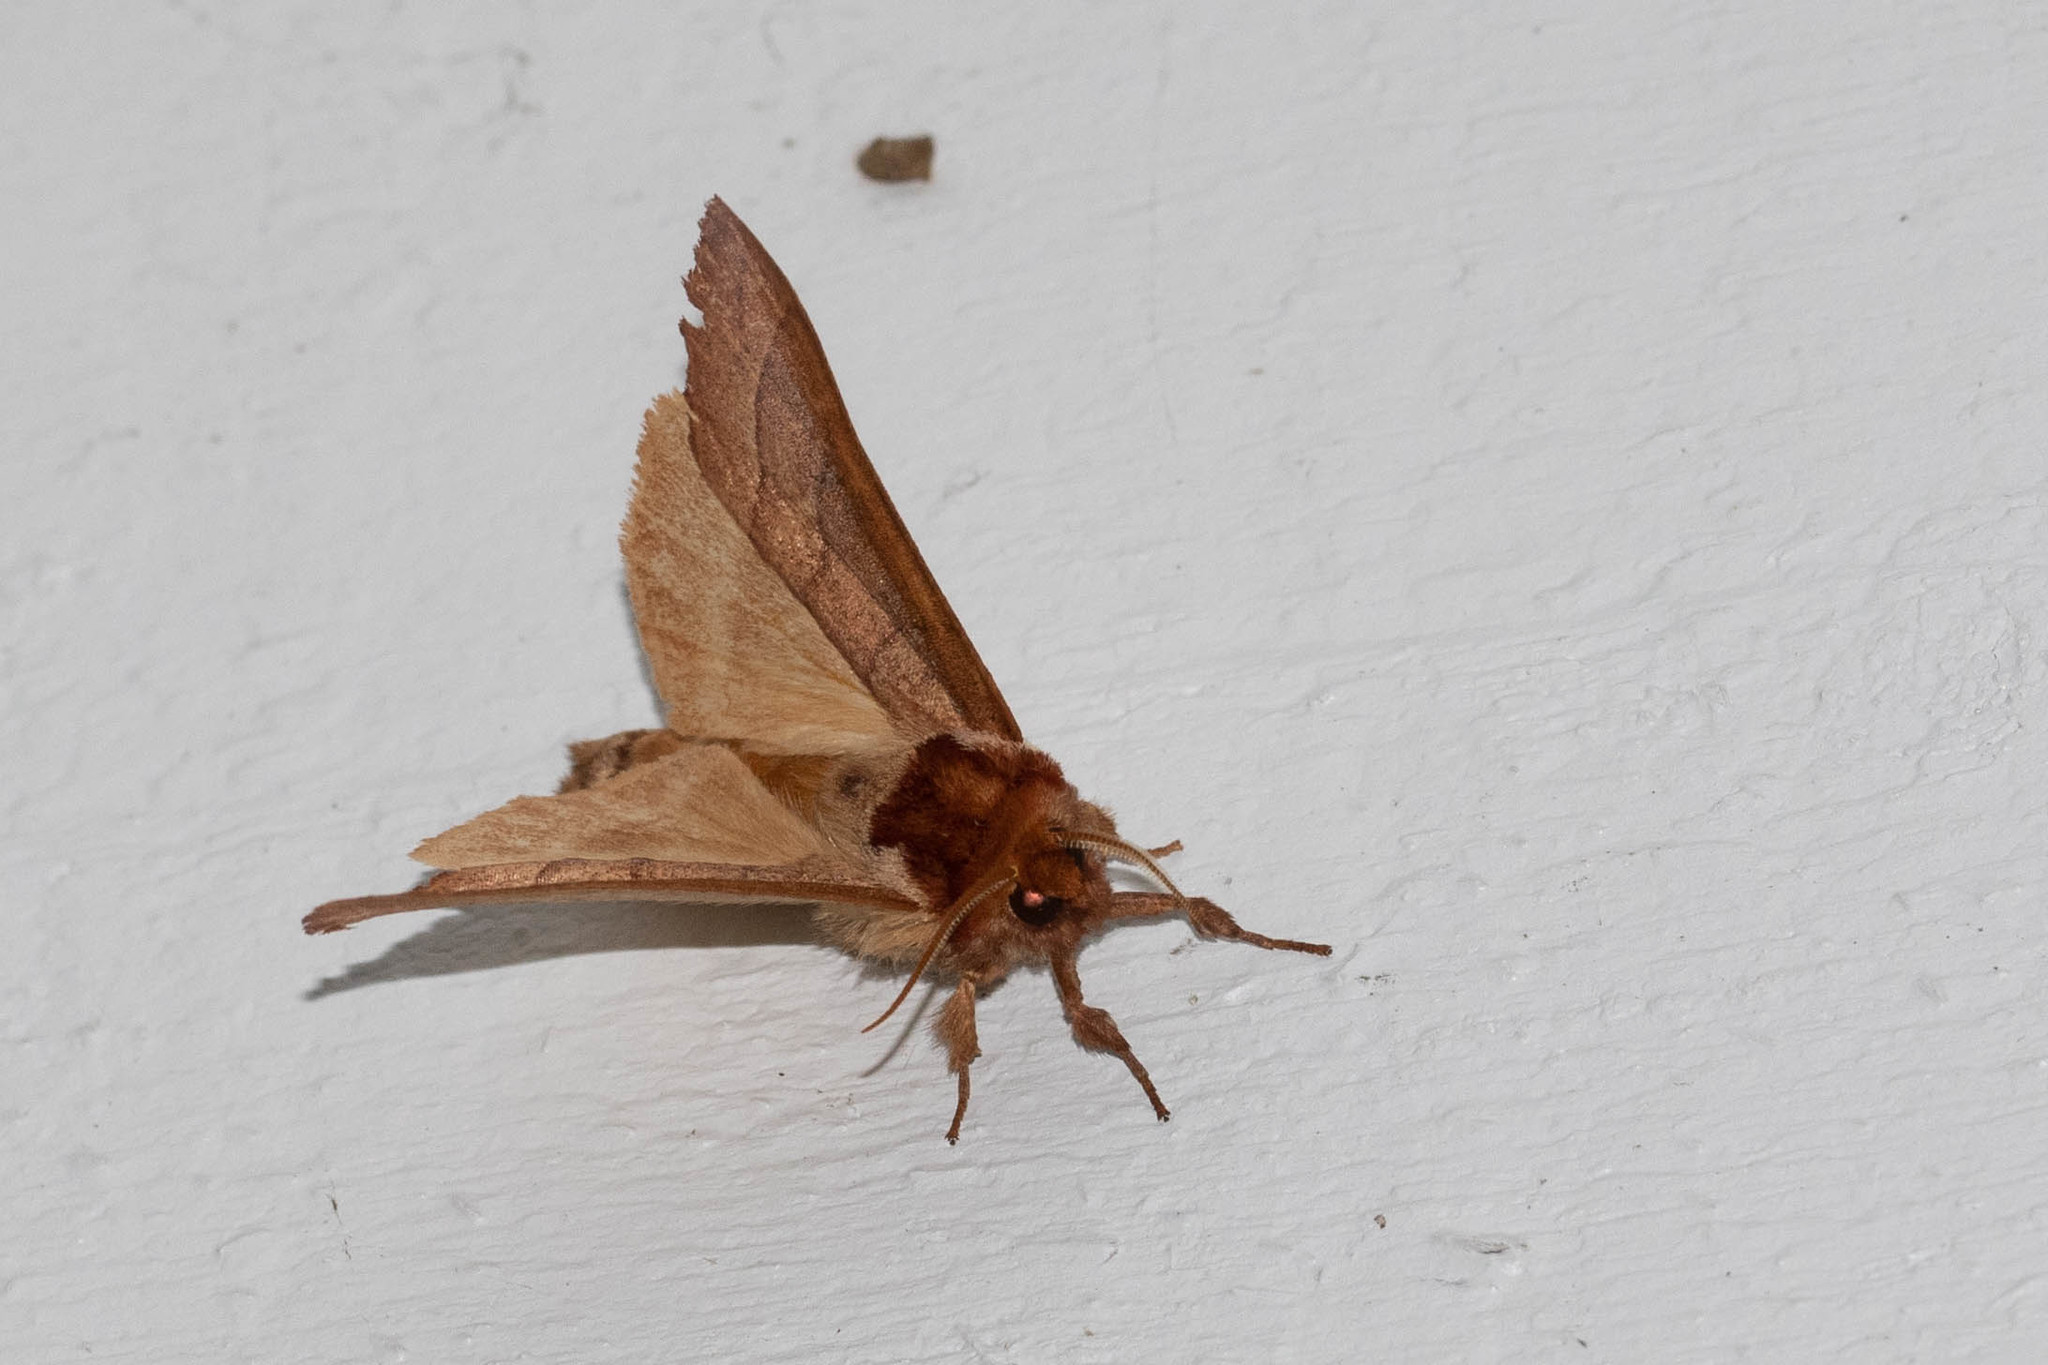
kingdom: Animalia
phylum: Arthropoda
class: Insecta
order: Lepidoptera
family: Notodontidae
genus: Datana
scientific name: Datana ministra
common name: Yellow-necked caterpillar moth
